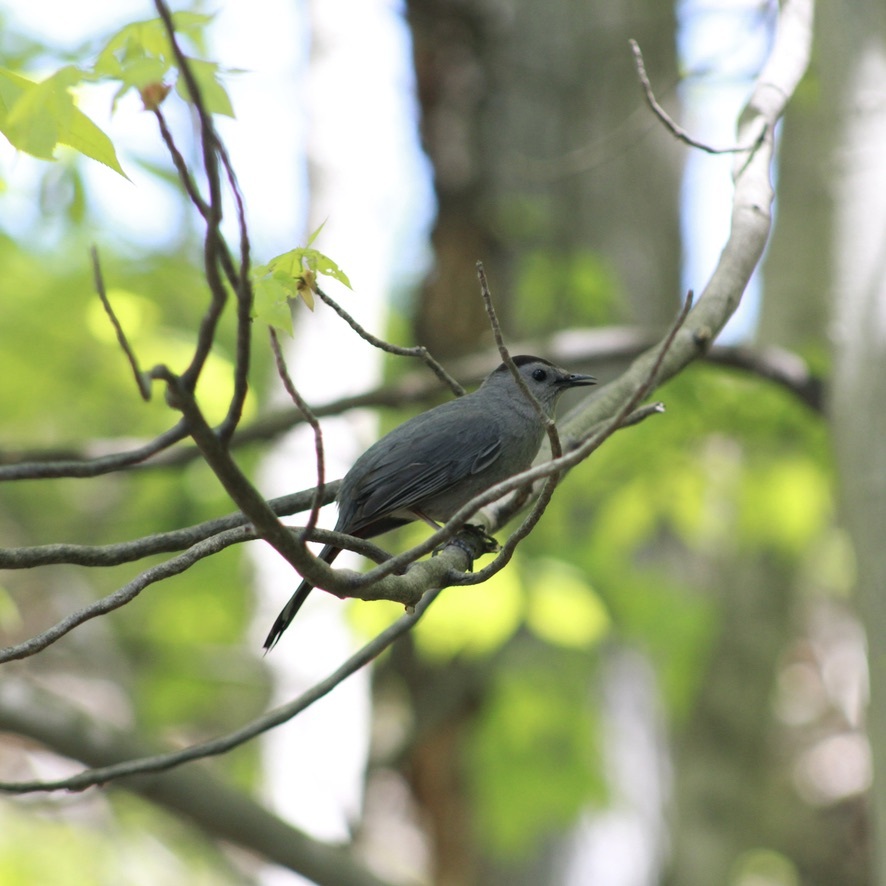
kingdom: Animalia
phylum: Chordata
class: Aves
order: Passeriformes
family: Mimidae
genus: Dumetella
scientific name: Dumetella carolinensis
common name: Gray catbird
